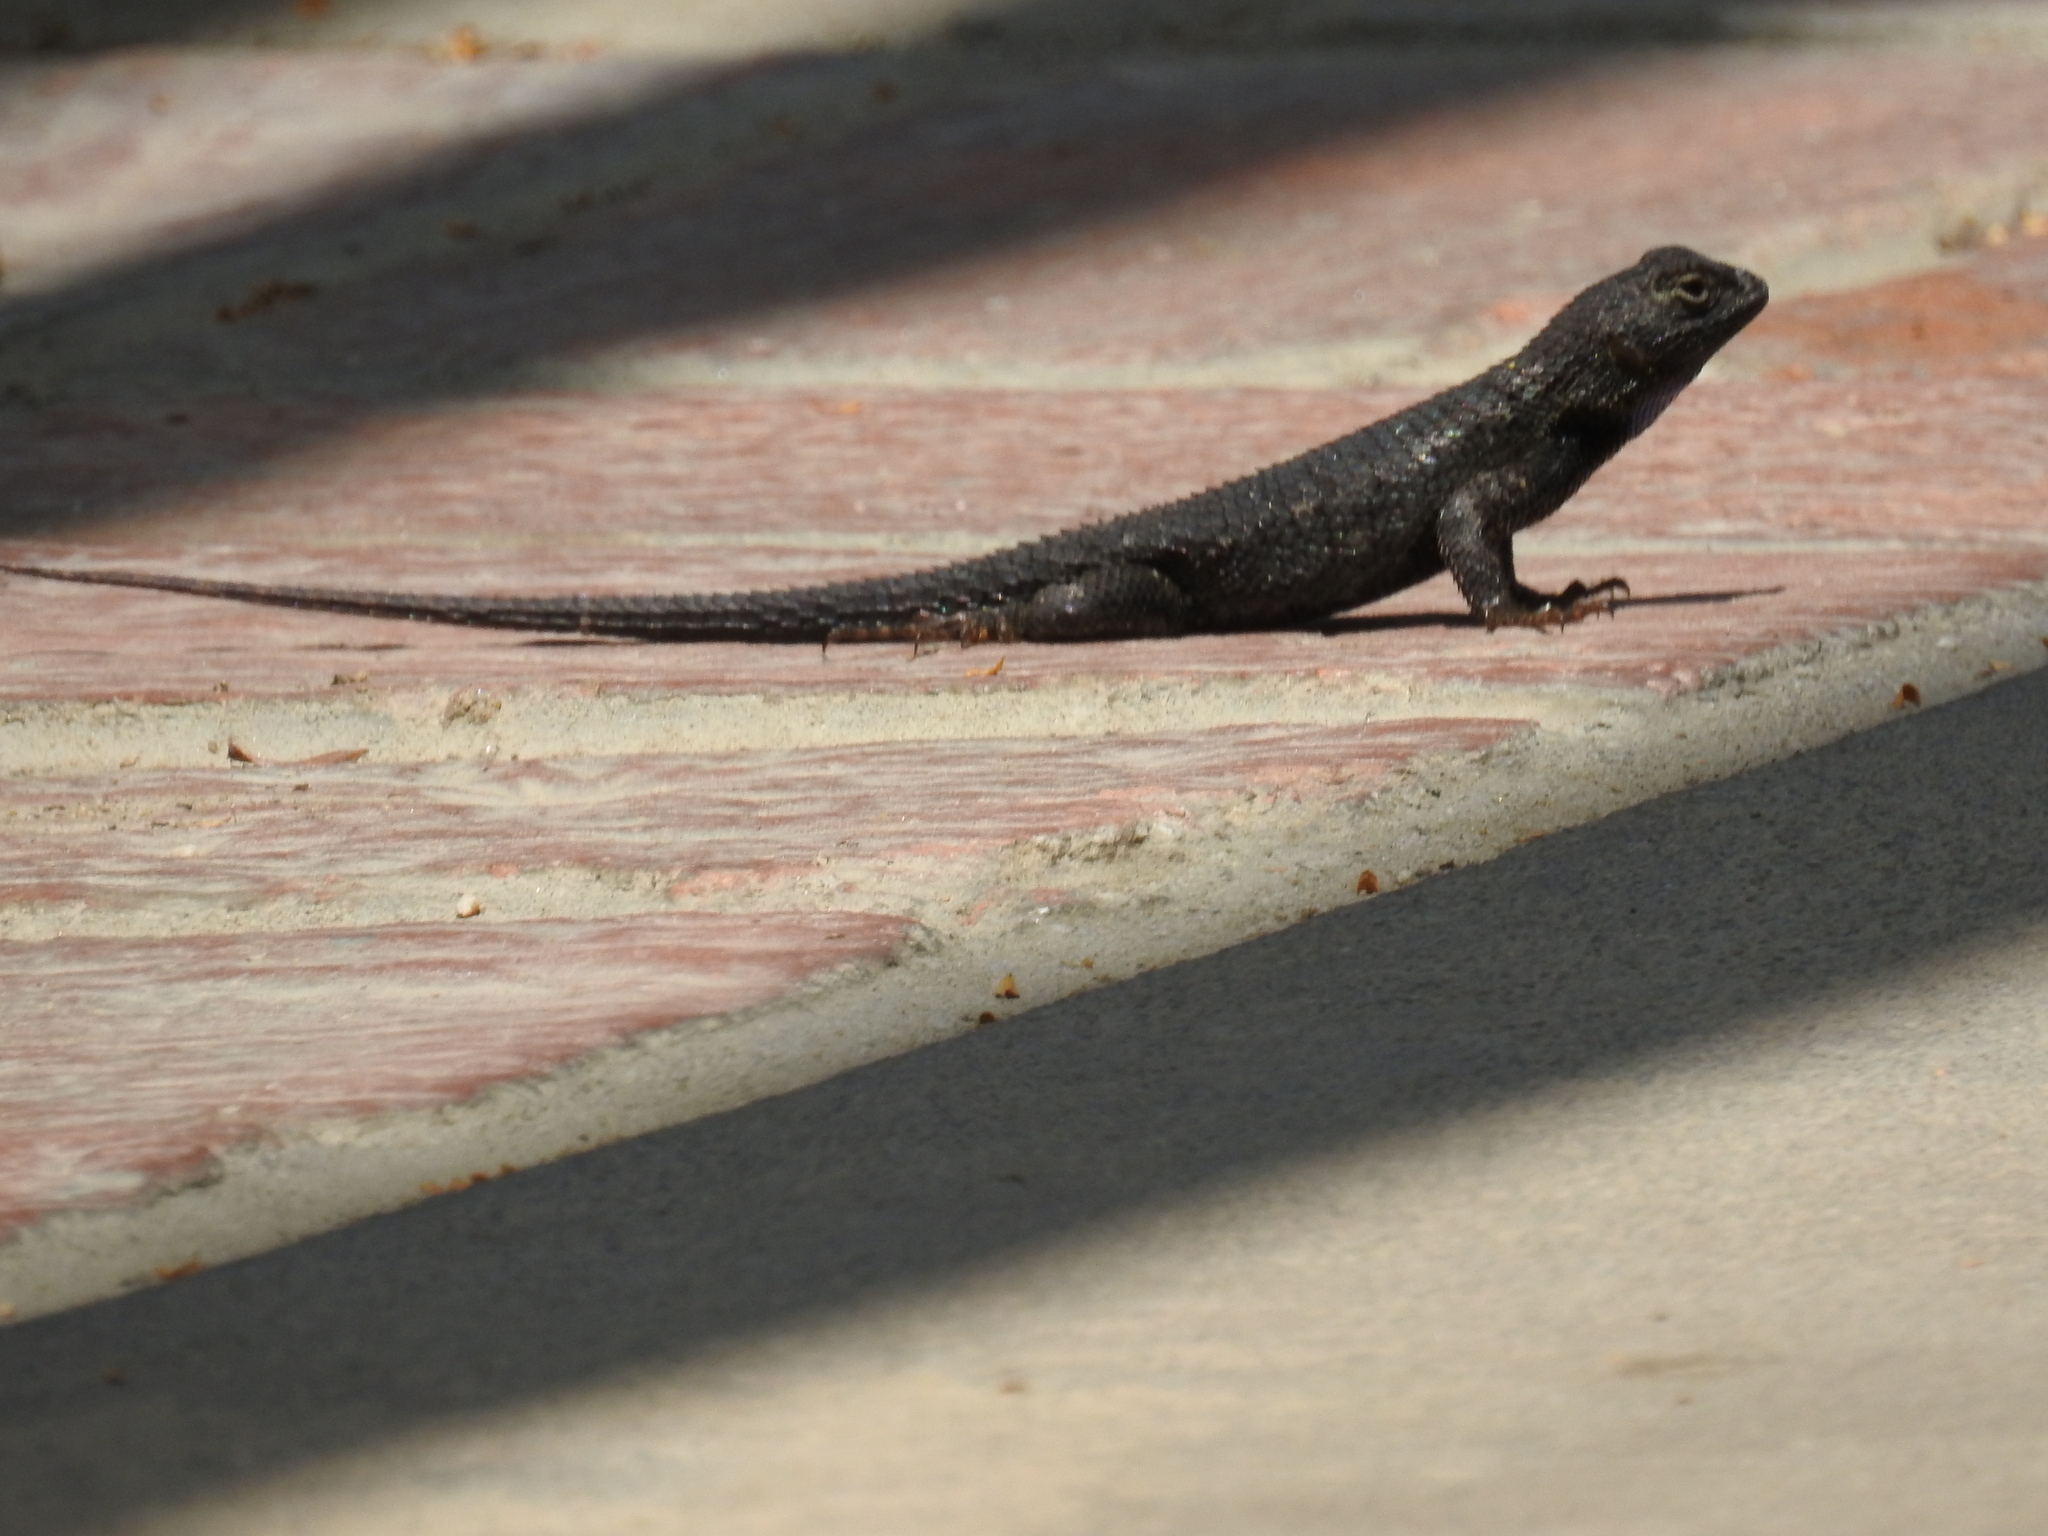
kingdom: Animalia
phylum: Chordata
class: Squamata
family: Phrynosomatidae
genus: Sceloporus
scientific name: Sceloporus occidentalis
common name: Western fence lizard
